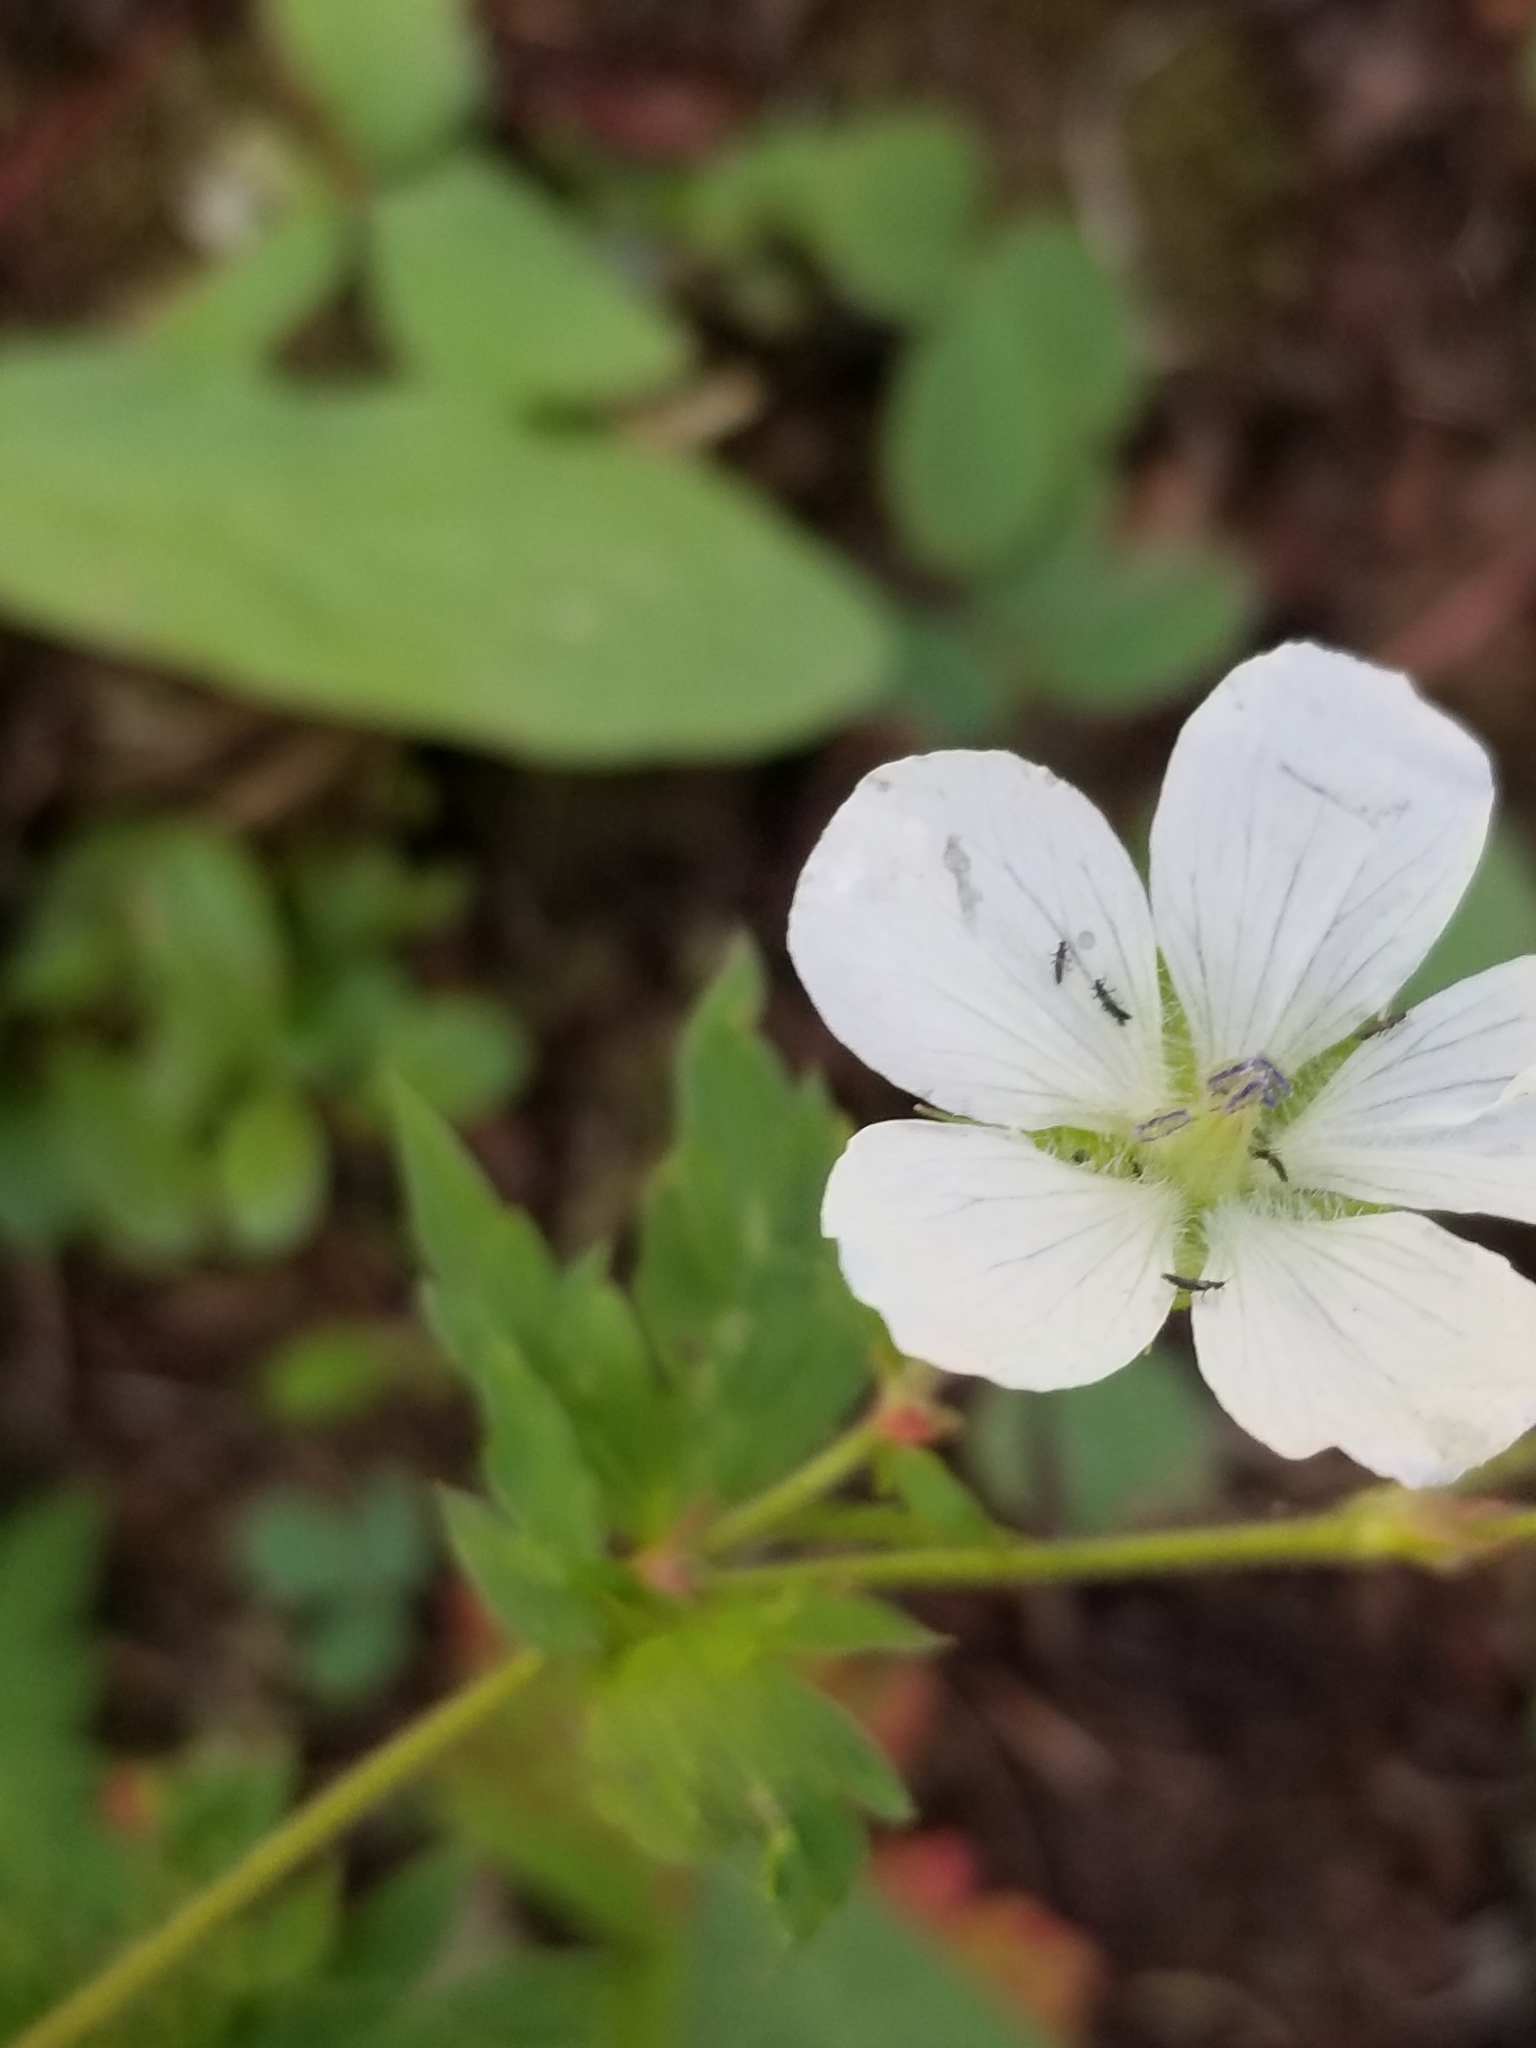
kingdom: Plantae
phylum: Tracheophyta
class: Magnoliopsida
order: Geraniales
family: Geraniaceae
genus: Geranium
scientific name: Geranium richardsonii
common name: Richardson's crane's-bill
